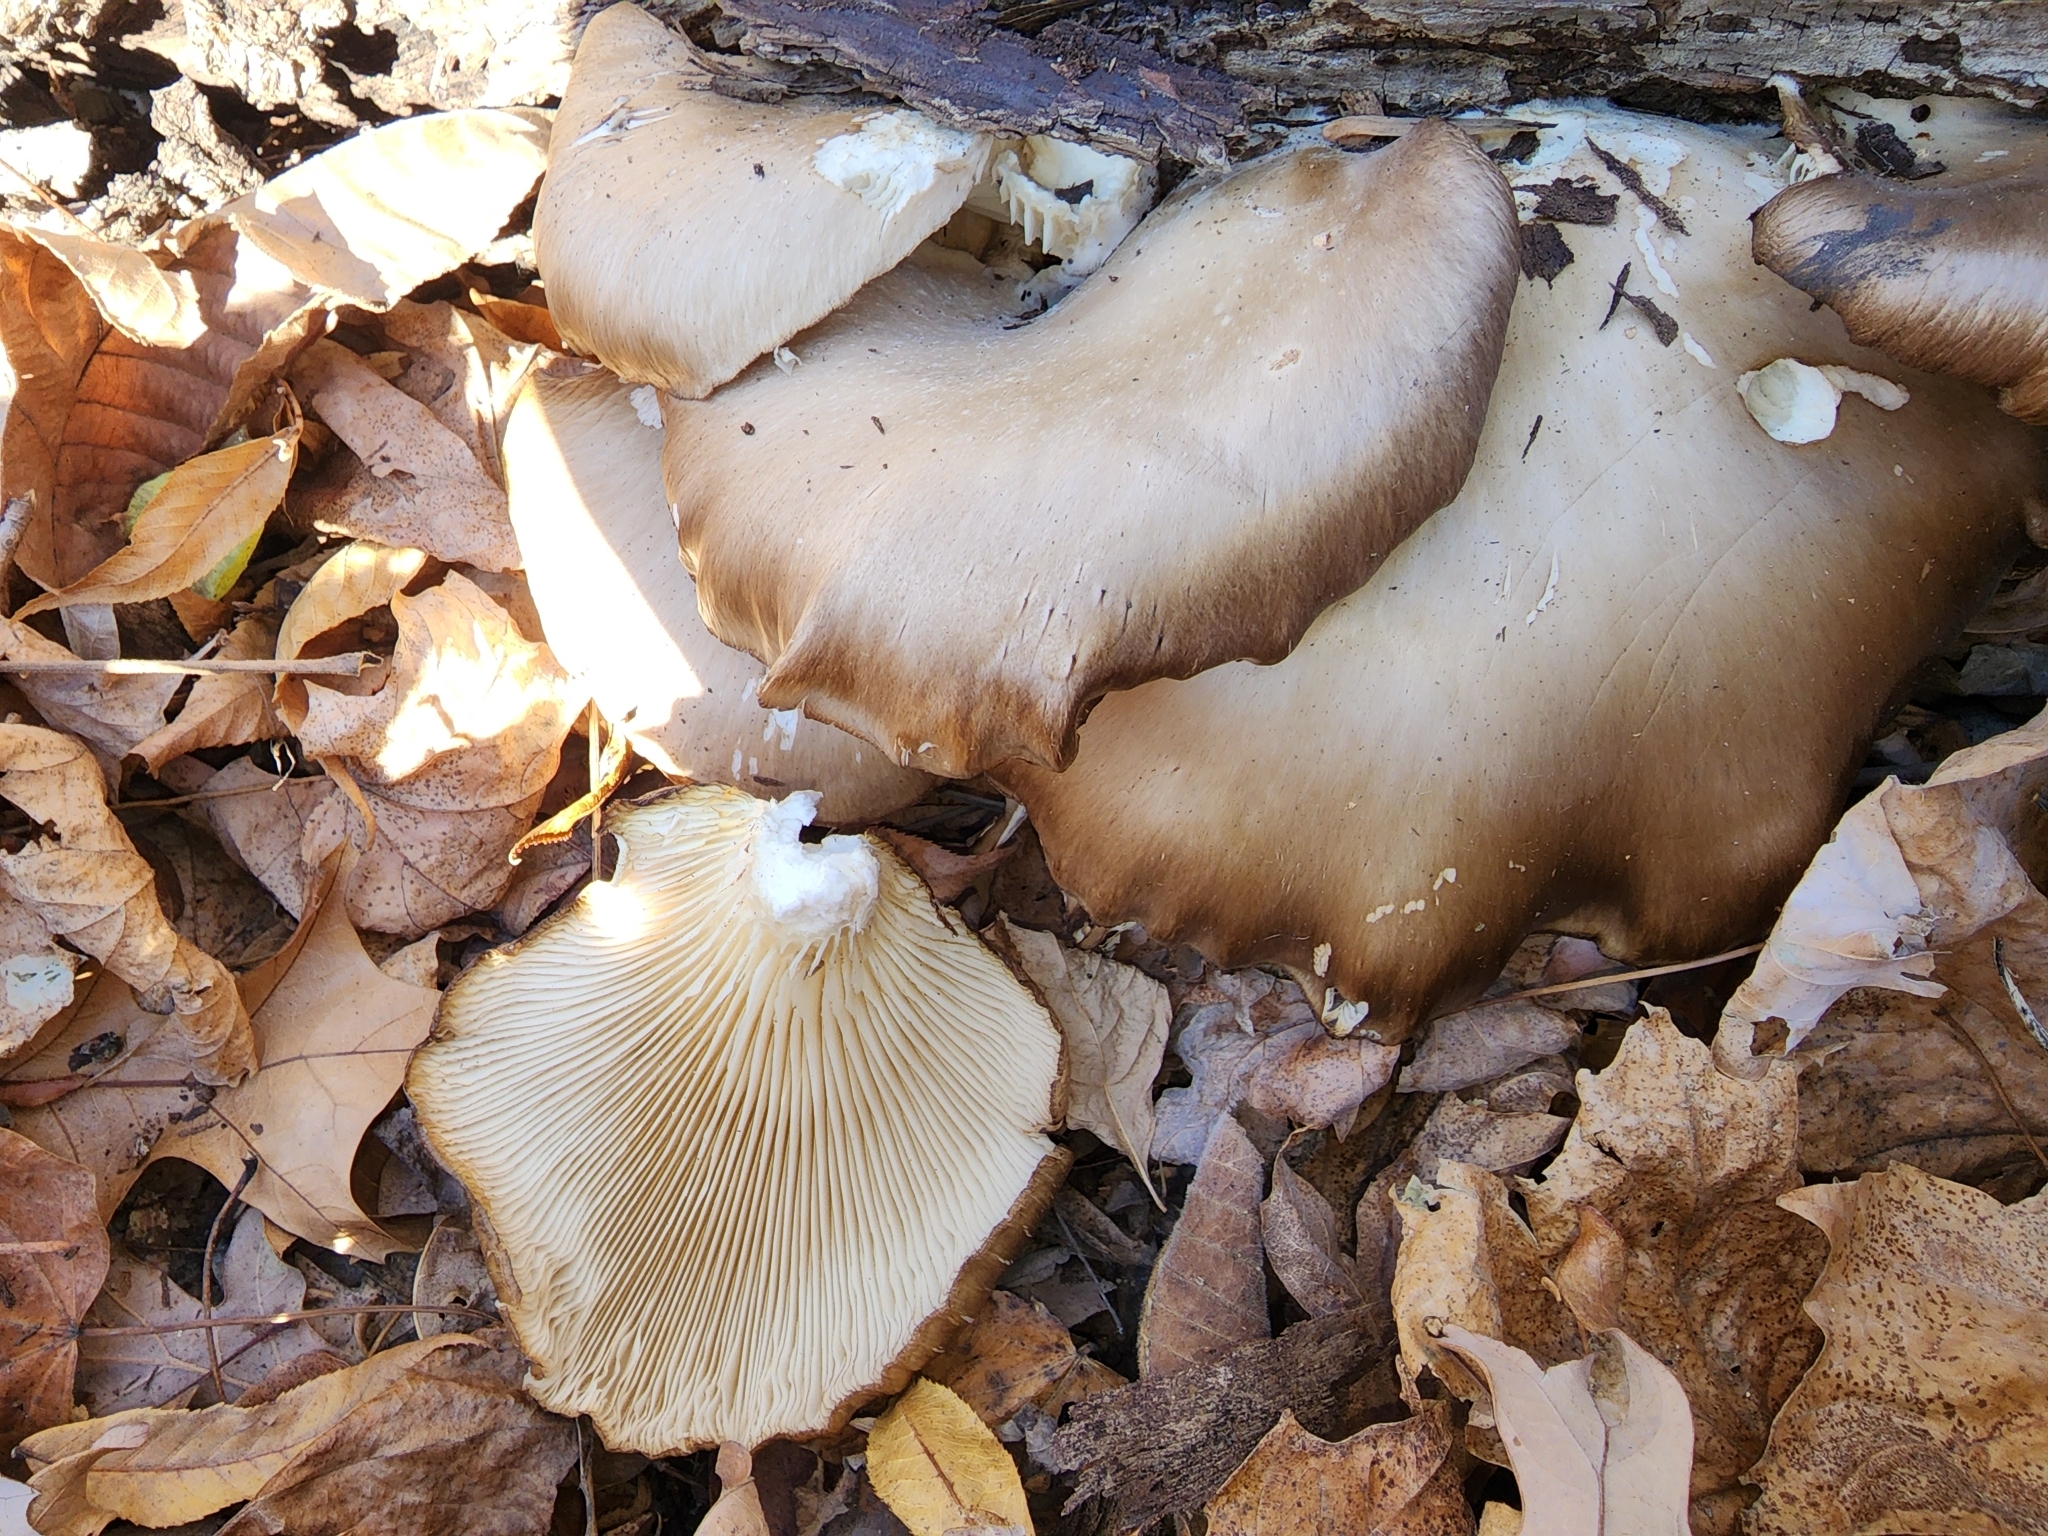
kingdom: Fungi
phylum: Basidiomycota
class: Agaricomycetes
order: Agaricales
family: Pleurotaceae
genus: Pleurotus
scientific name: Pleurotus ostreatus
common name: Oyster mushroom
